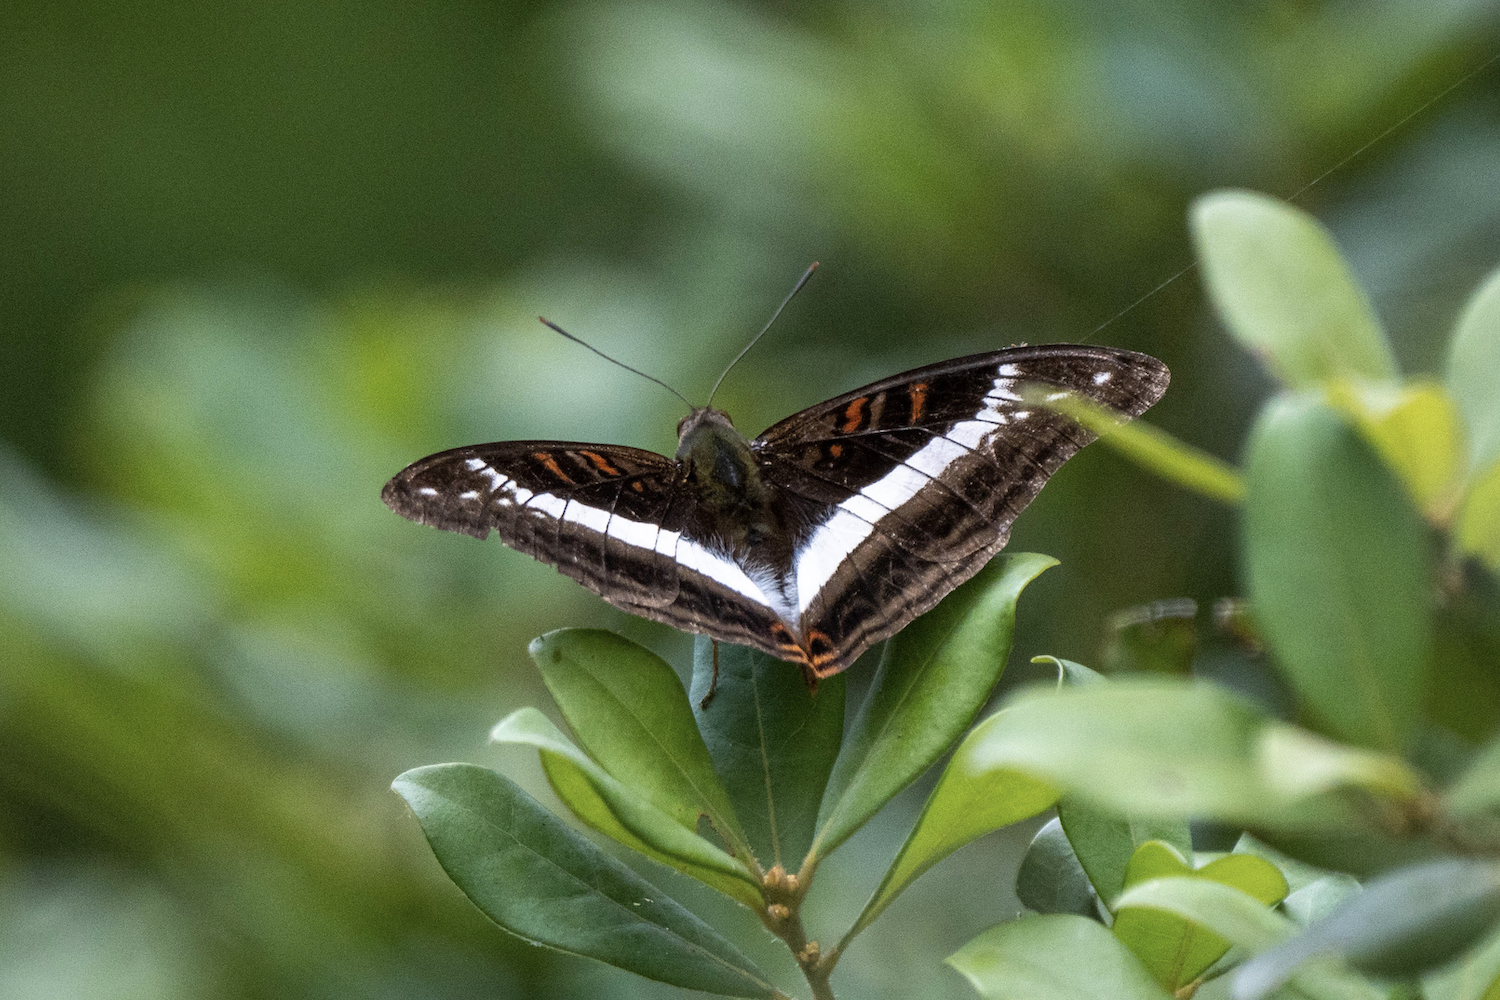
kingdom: Animalia
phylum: Arthropoda
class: Insecta
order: Lepidoptera
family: Nymphalidae
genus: Limenitis
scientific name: Limenitis Parasarpa dudu
